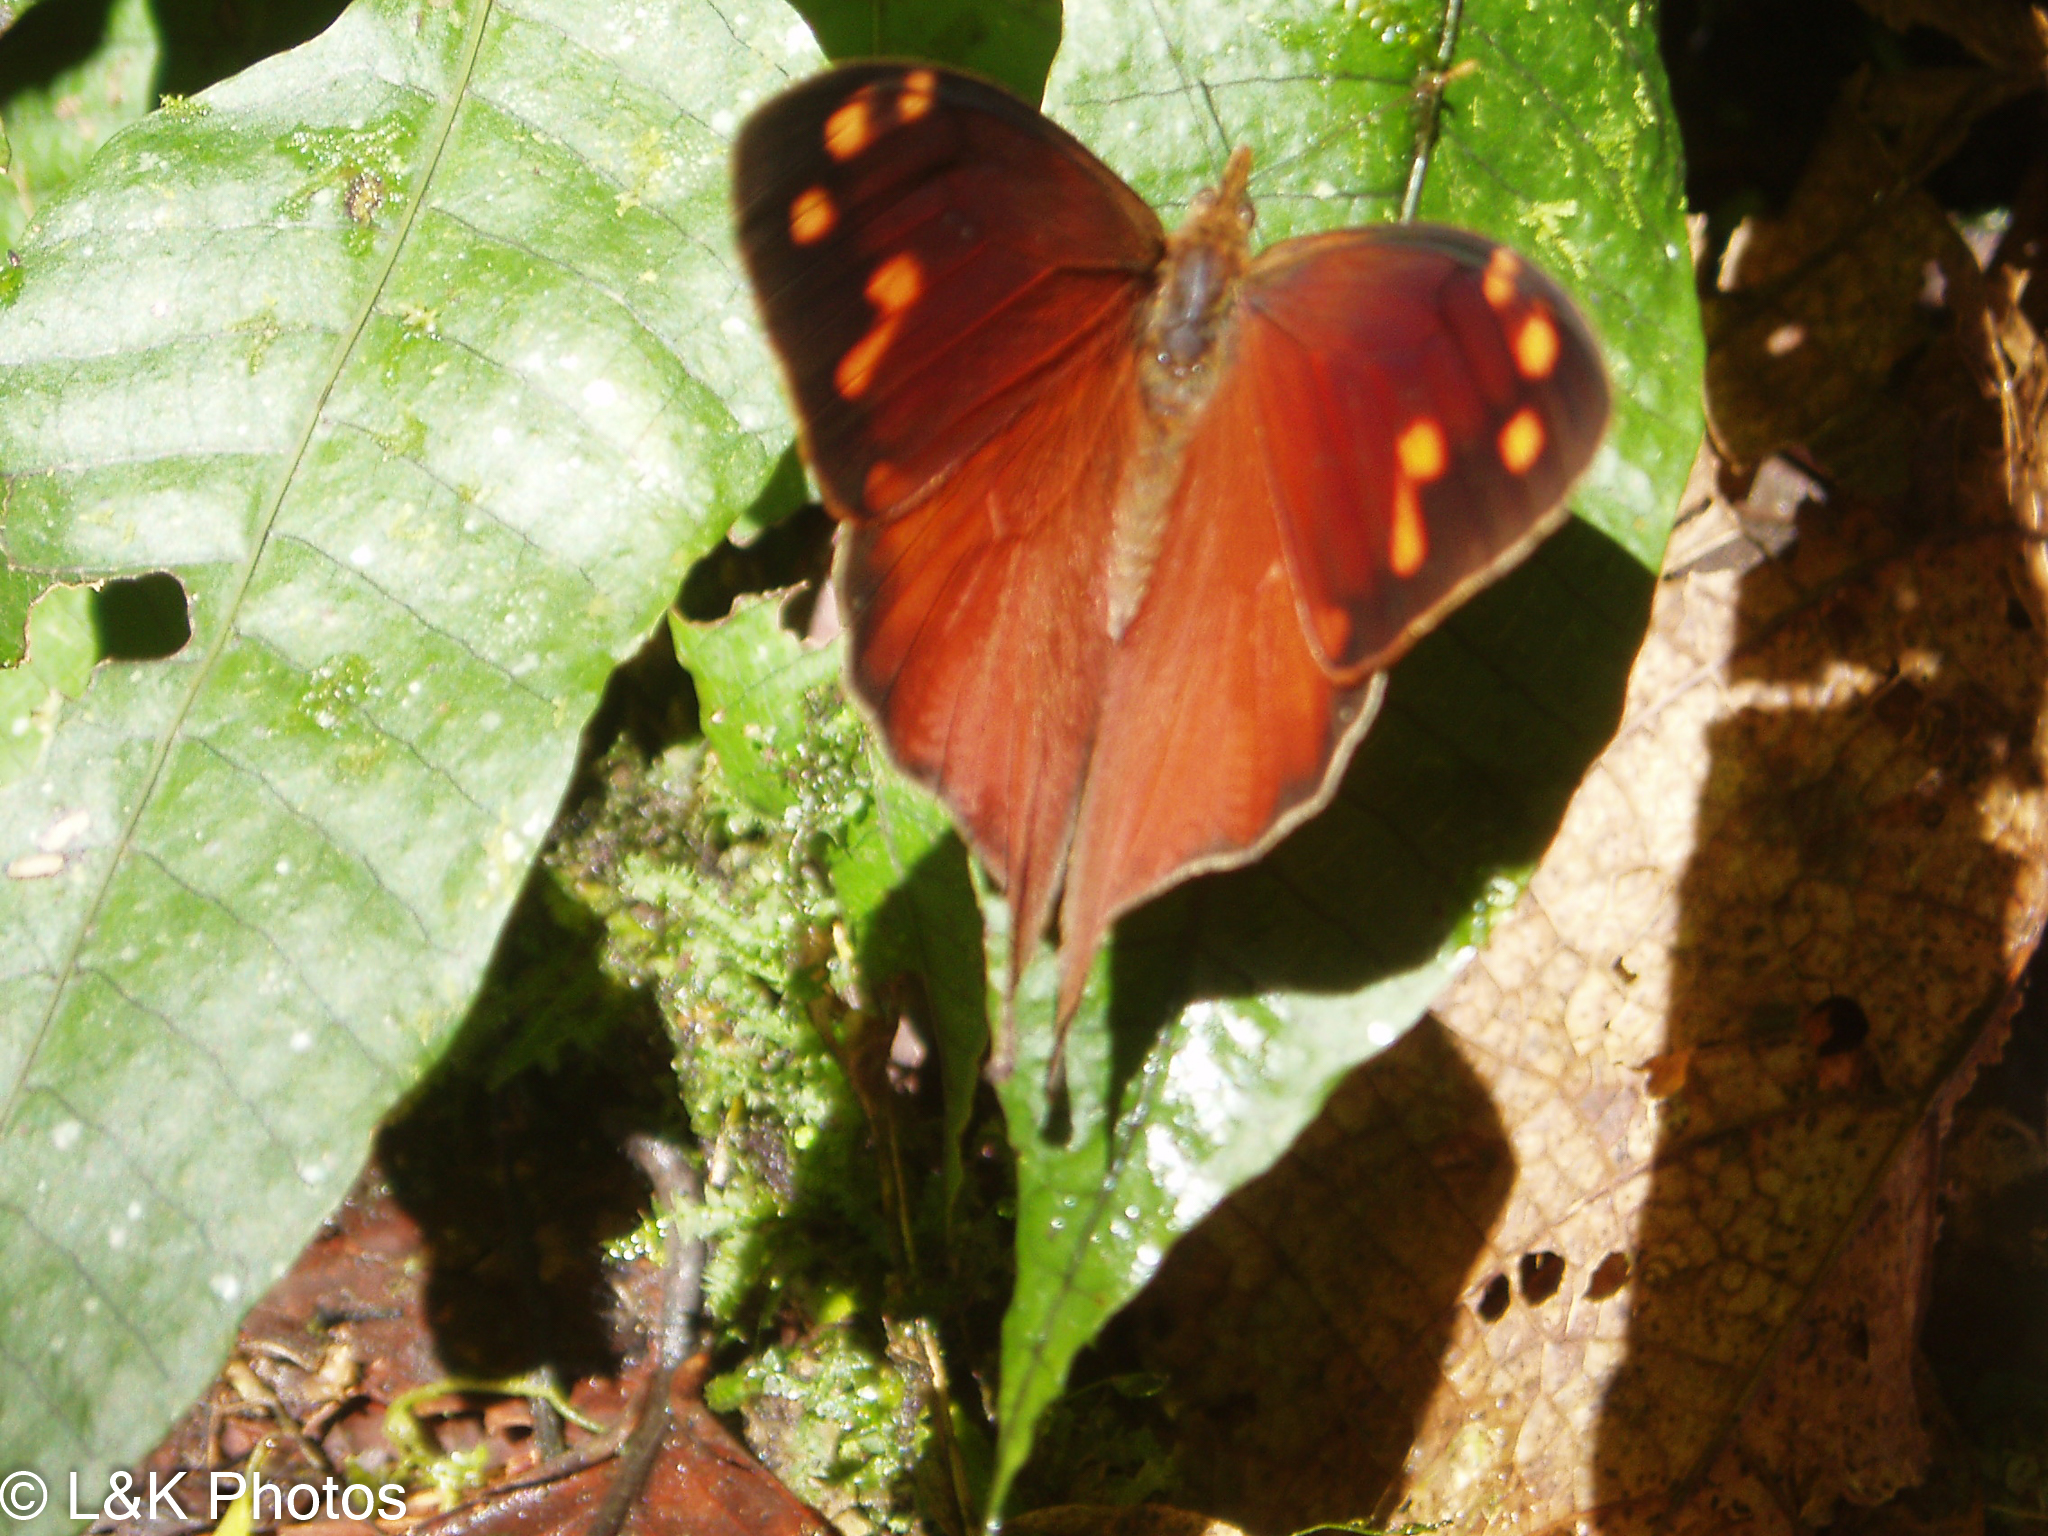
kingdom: Animalia
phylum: Arthropoda
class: Insecta
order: Lepidoptera
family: Nymphalidae
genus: Corades
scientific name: Corades enyo
